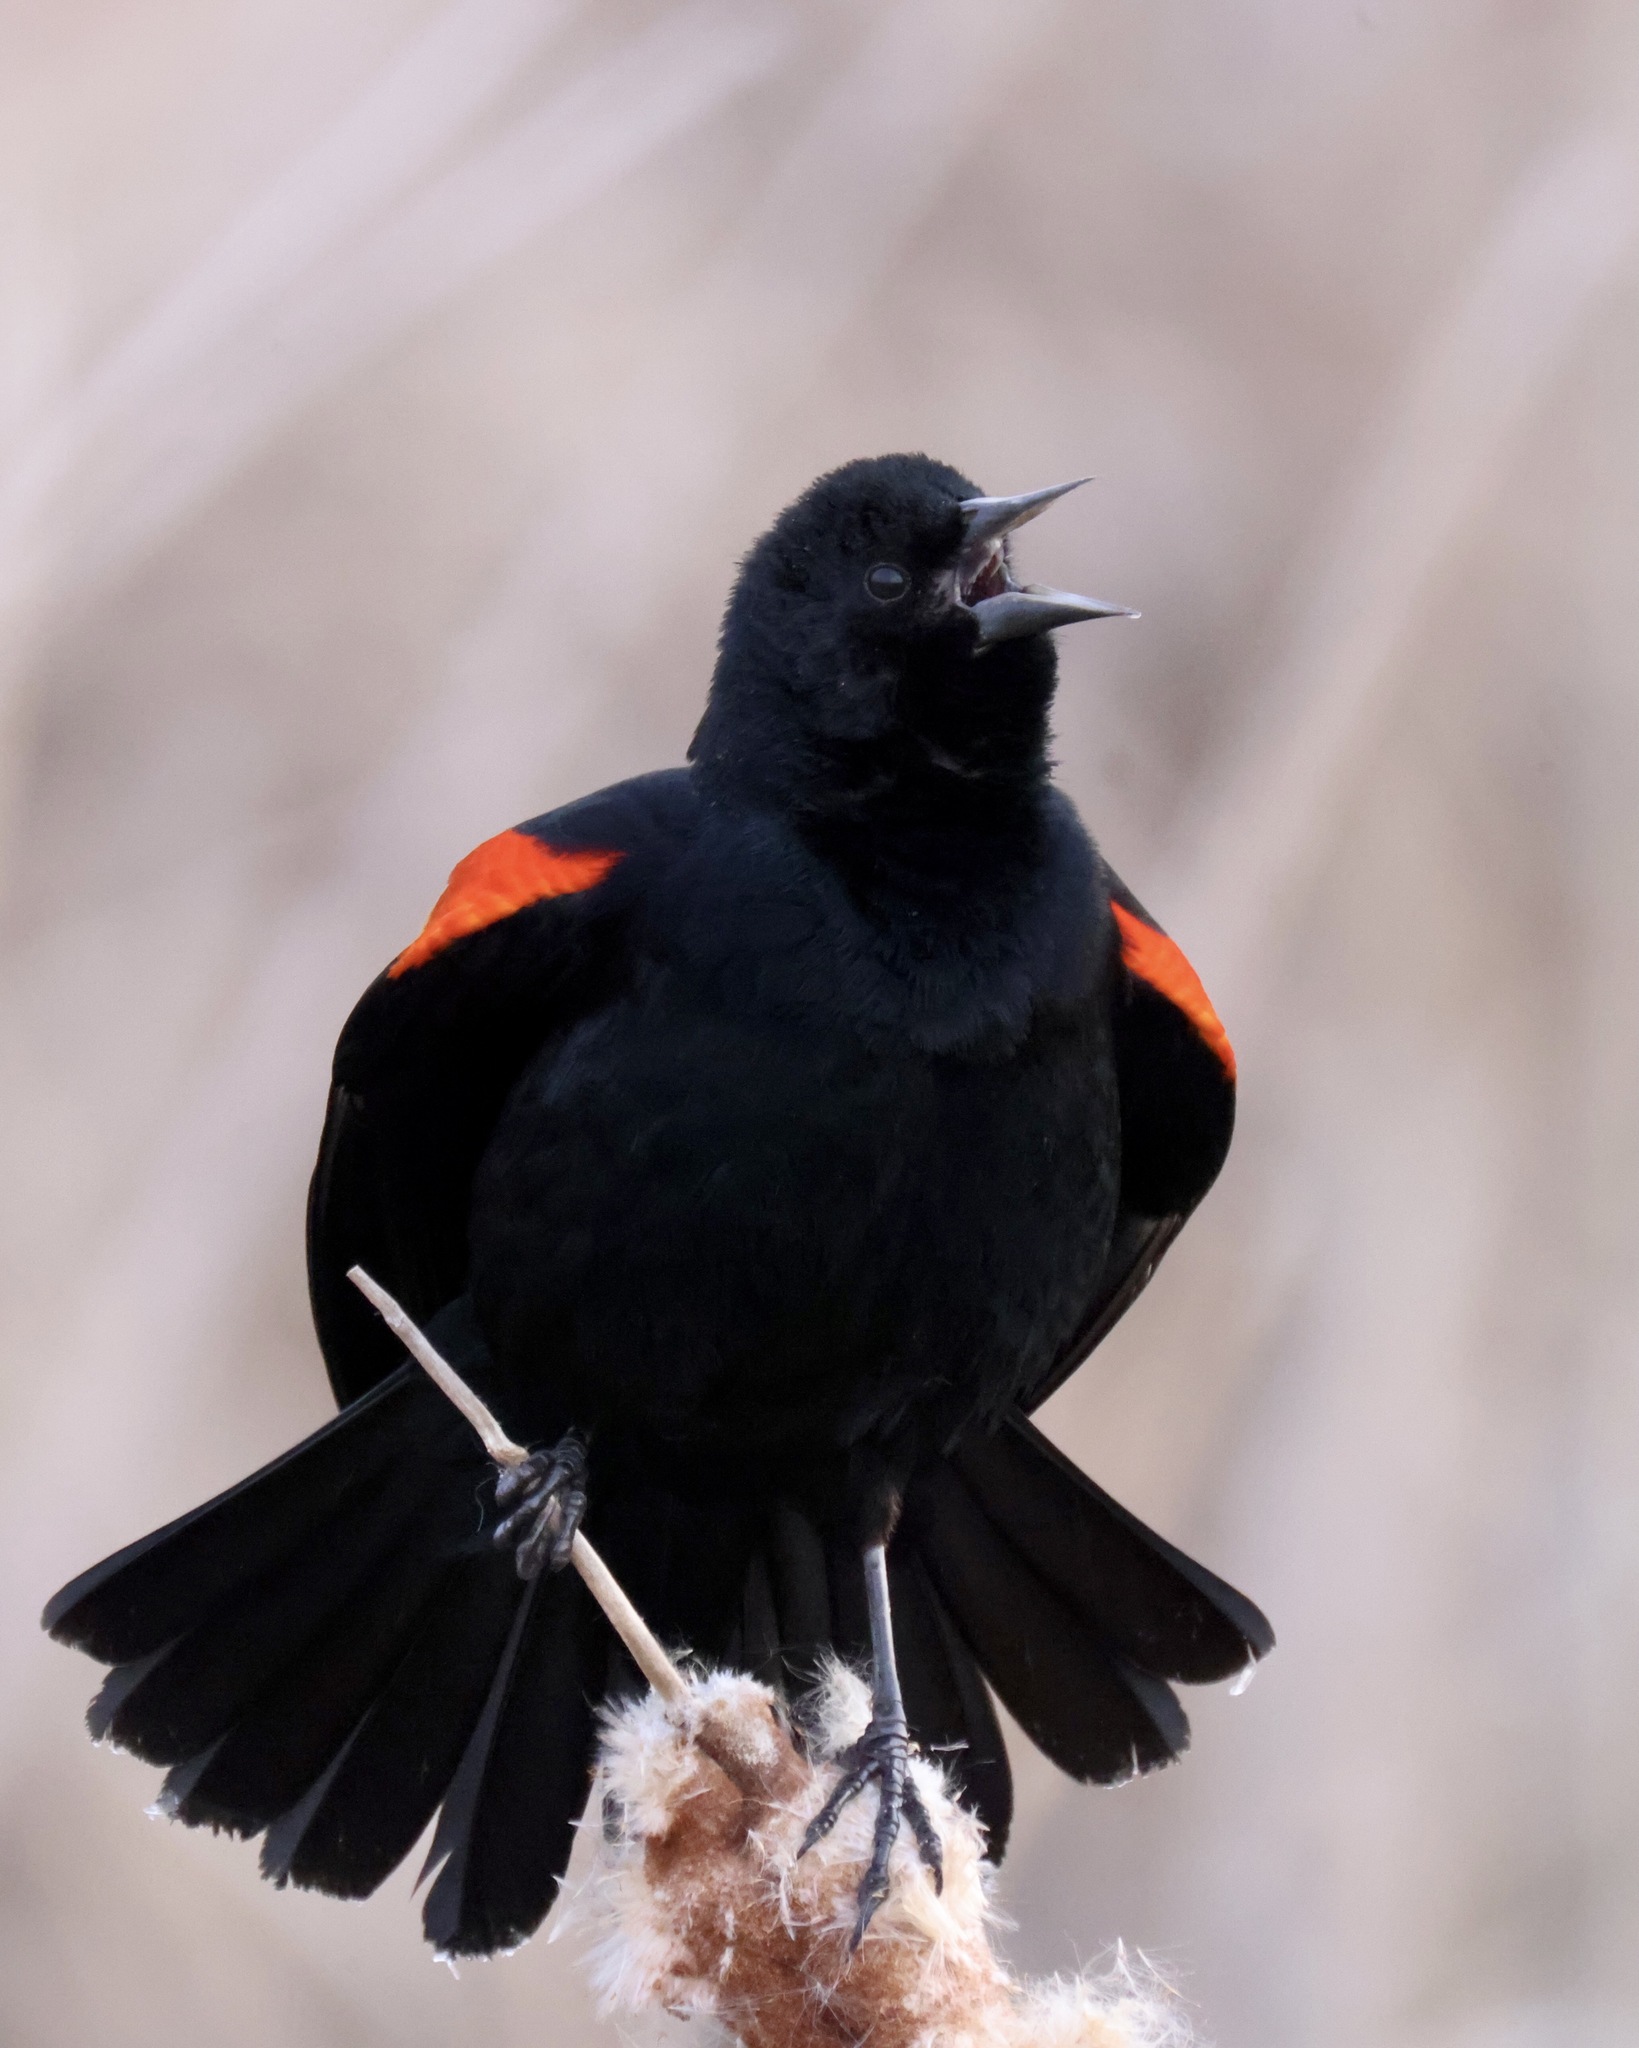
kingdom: Animalia
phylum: Chordata
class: Aves
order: Passeriformes
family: Icteridae
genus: Agelaius
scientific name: Agelaius phoeniceus
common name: Red-winged blackbird
